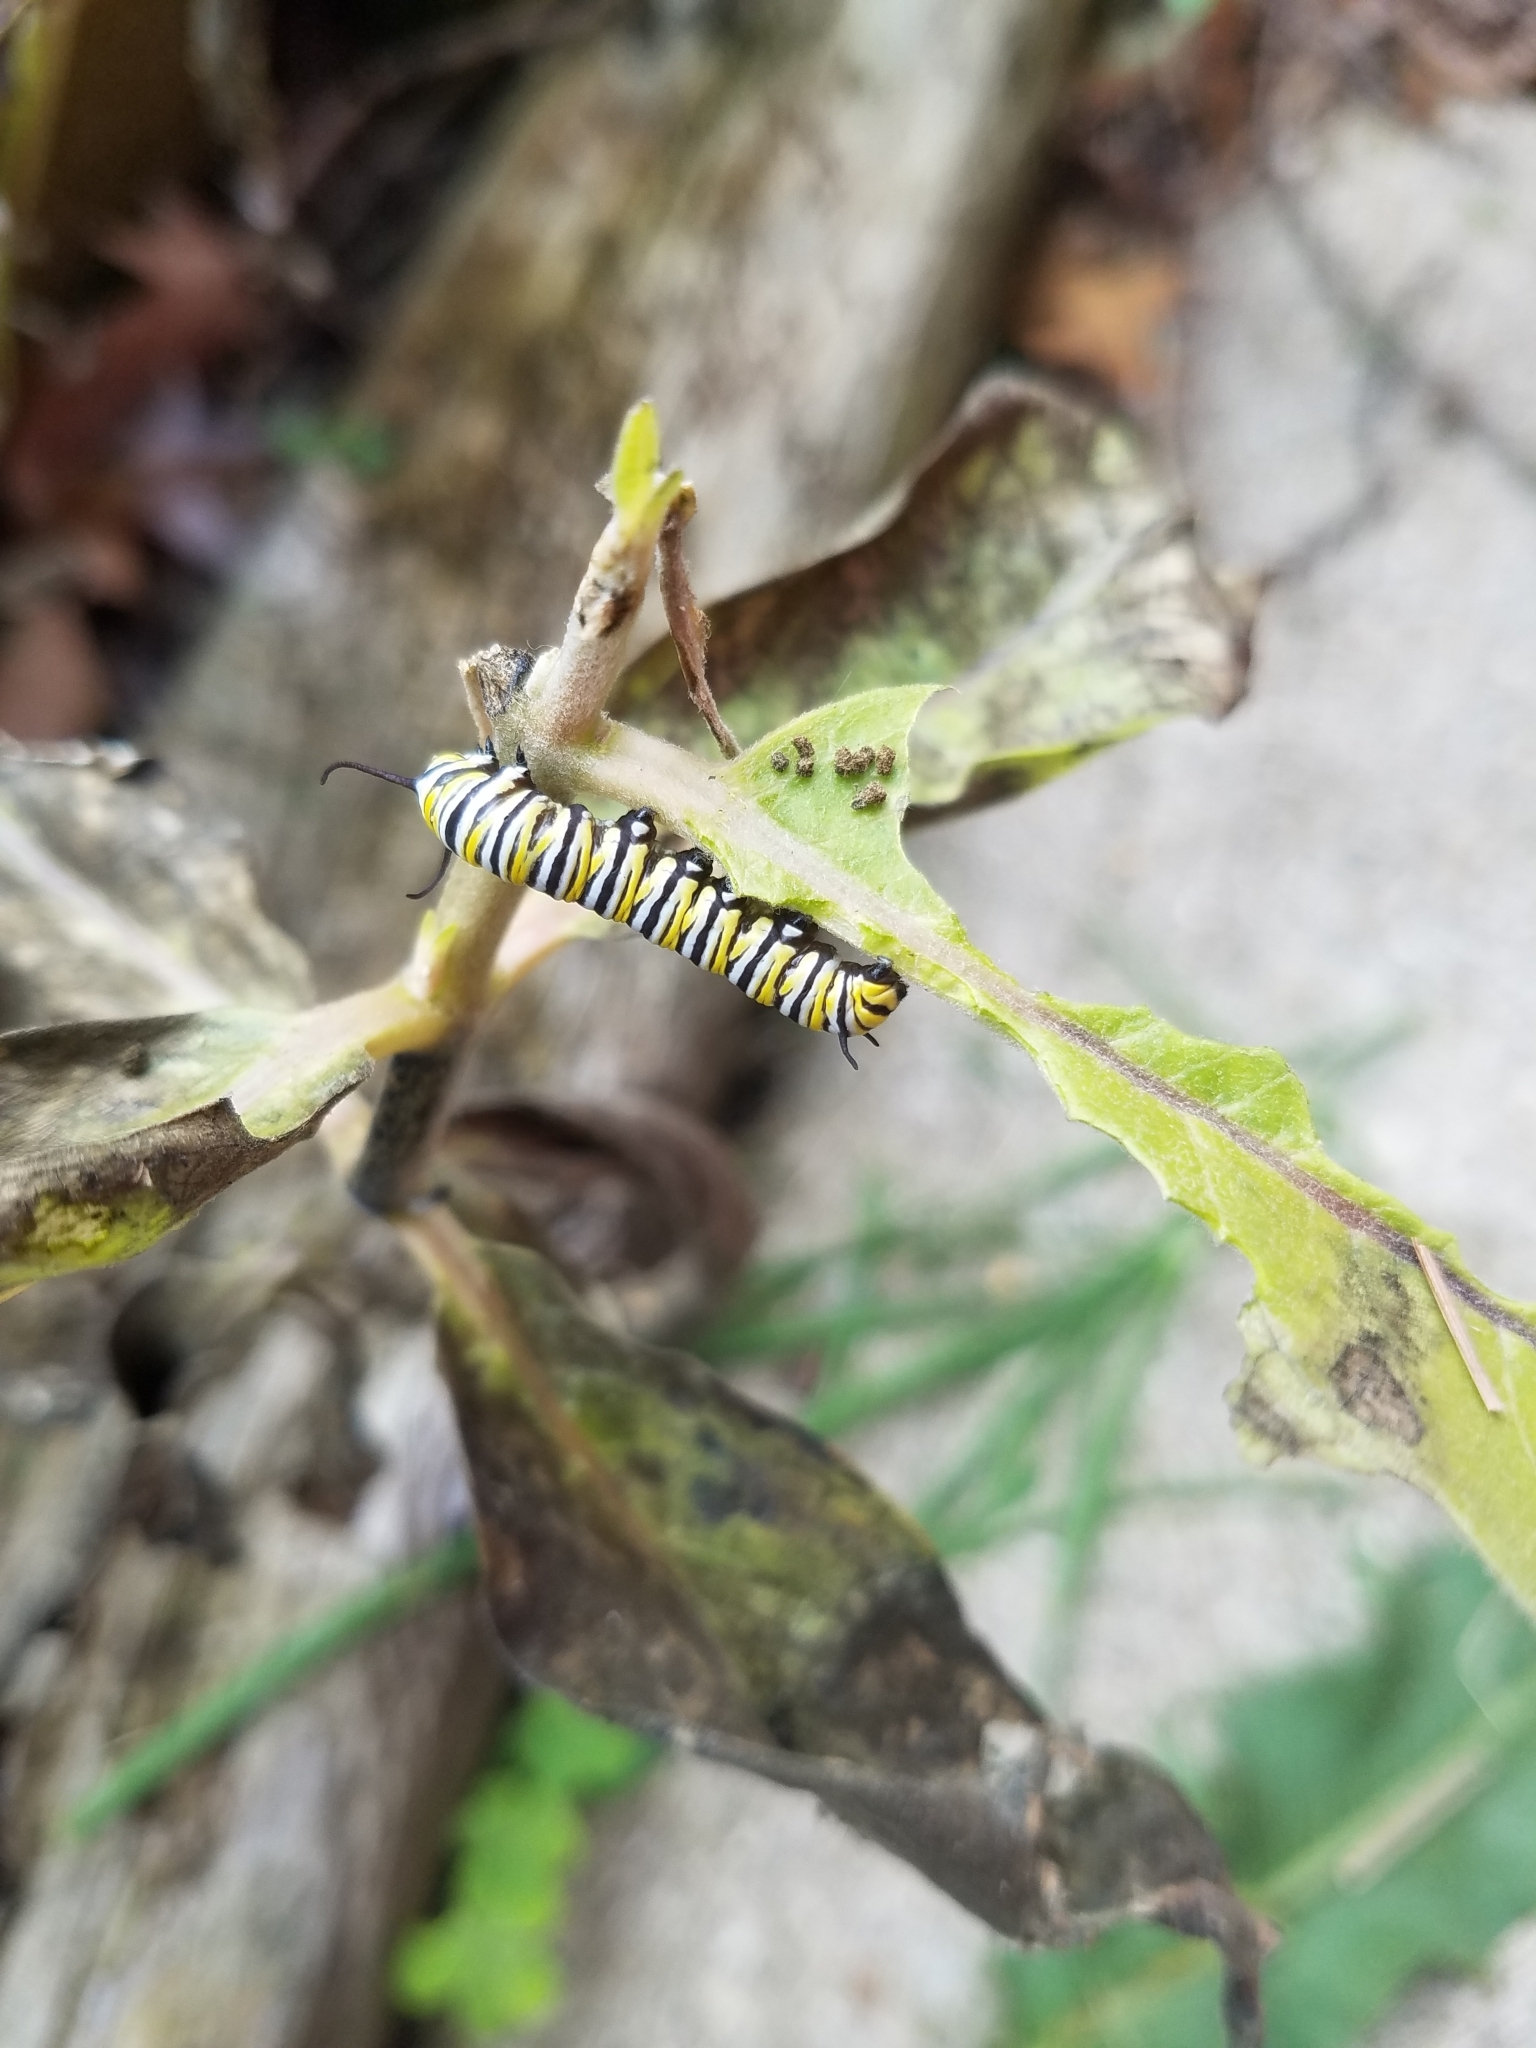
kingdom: Animalia
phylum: Arthropoda
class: Insecta
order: Lepidoptera
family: Nymphalidae
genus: Danaus
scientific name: Danaus plexippus
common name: Monarch
